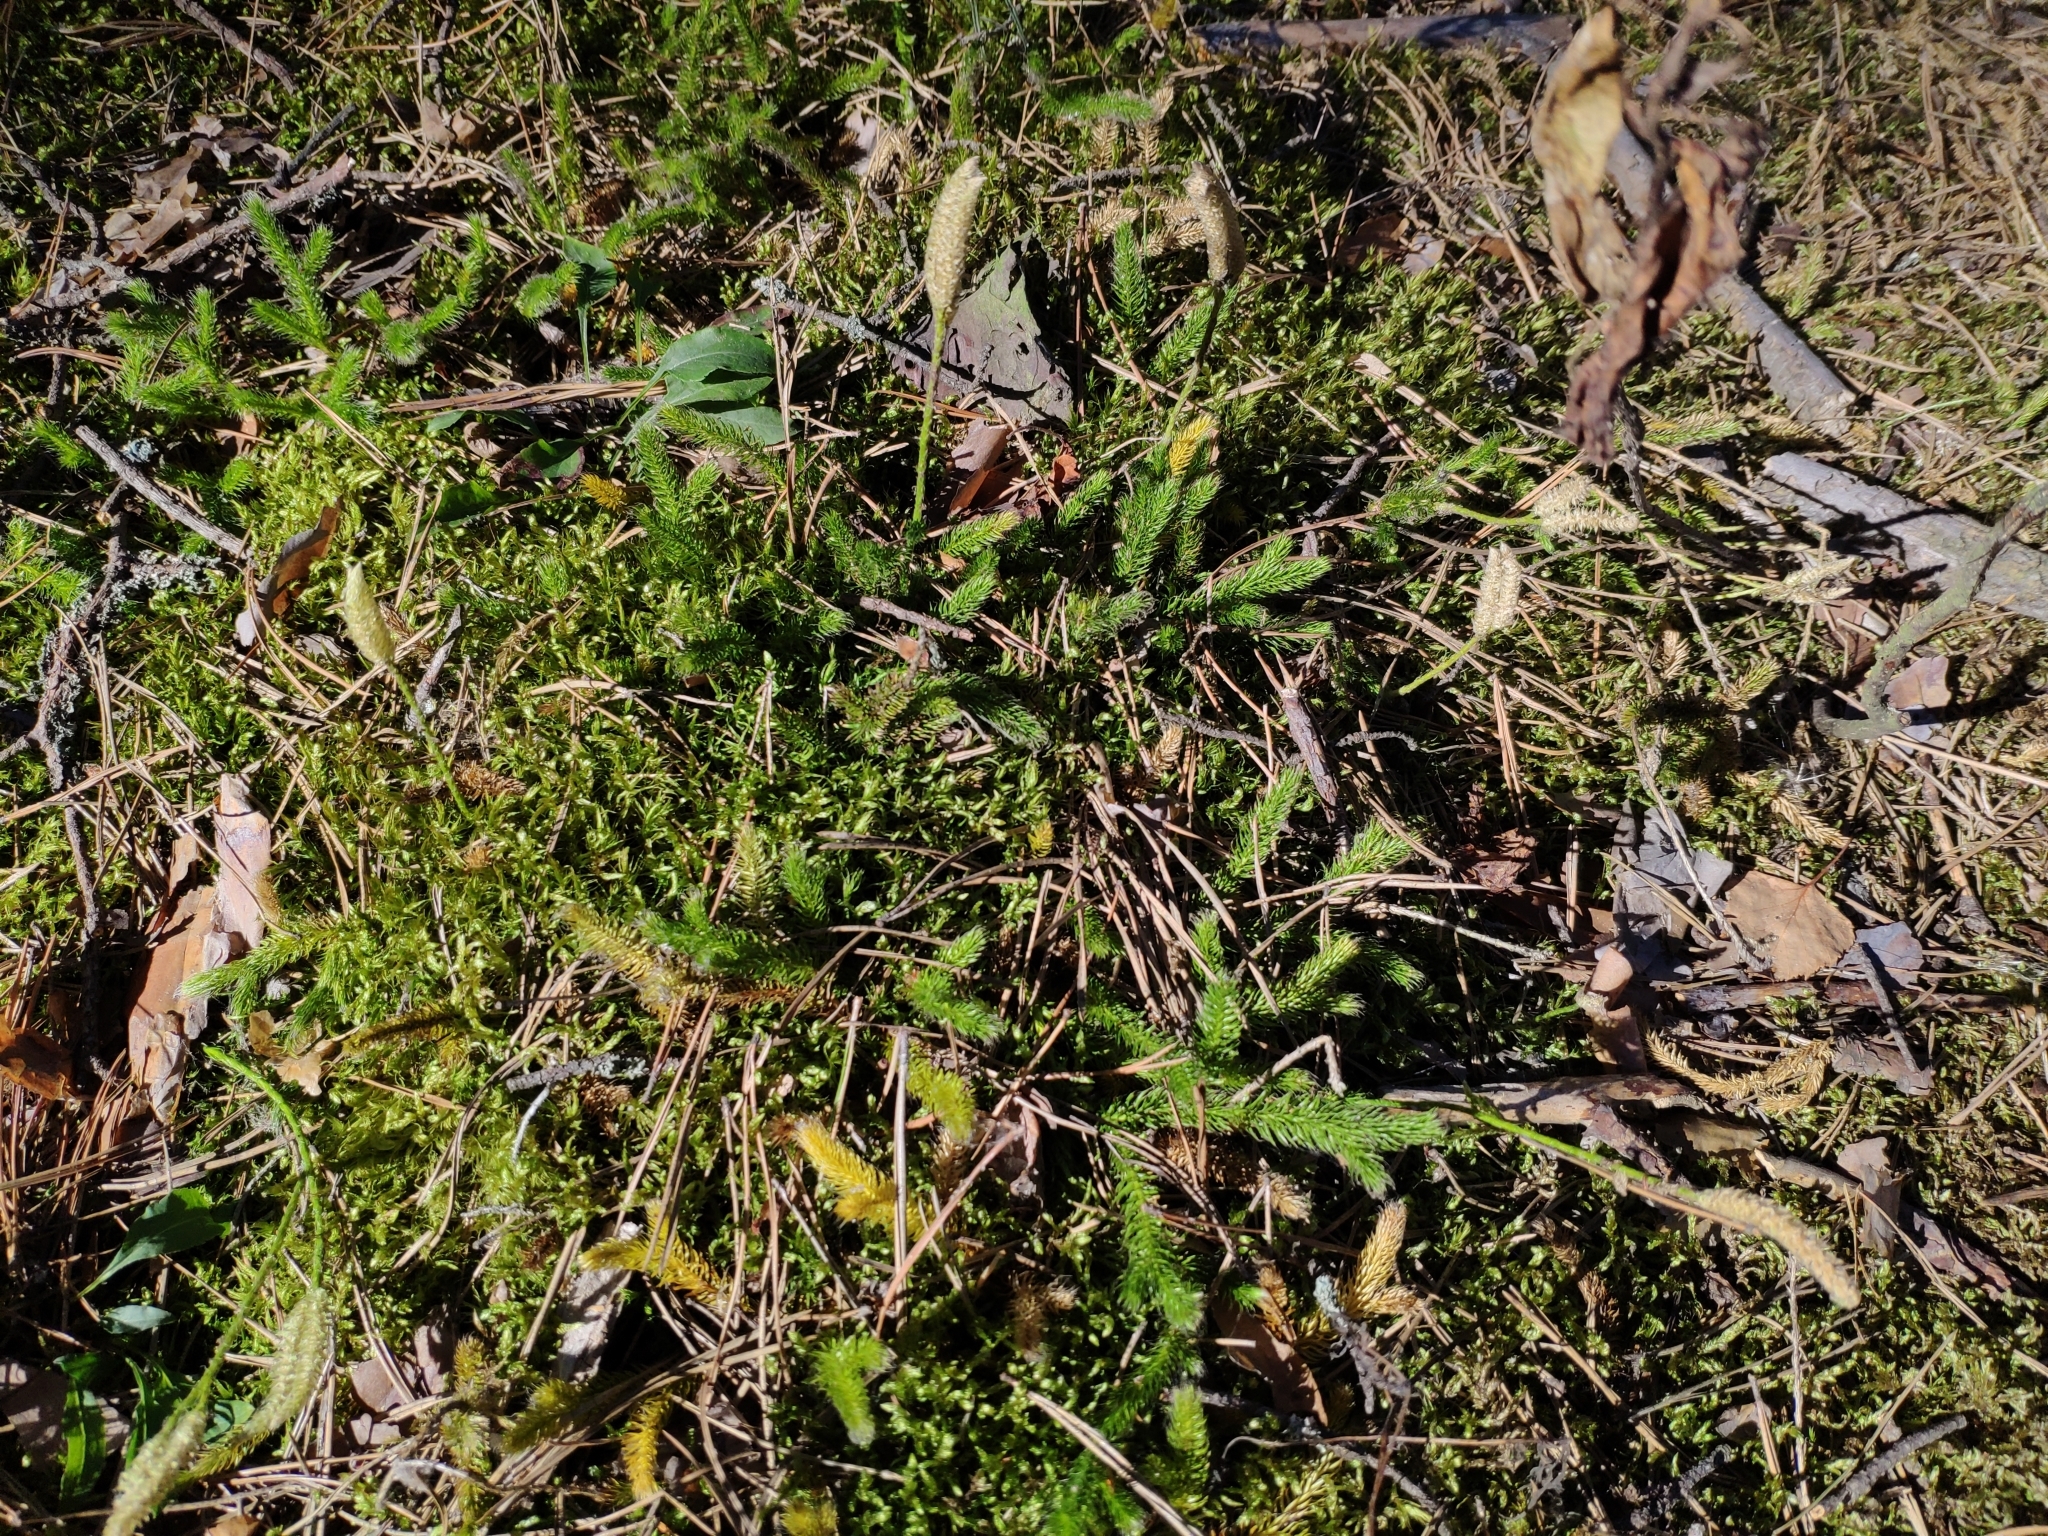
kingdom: Plantae
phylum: Tracheophyta
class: Lycopodiopsida
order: Lycopodiales
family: Lycopodiaceae
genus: Lycopodium
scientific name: Lycopodium clavatum
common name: Stag's-horn clubmoss
